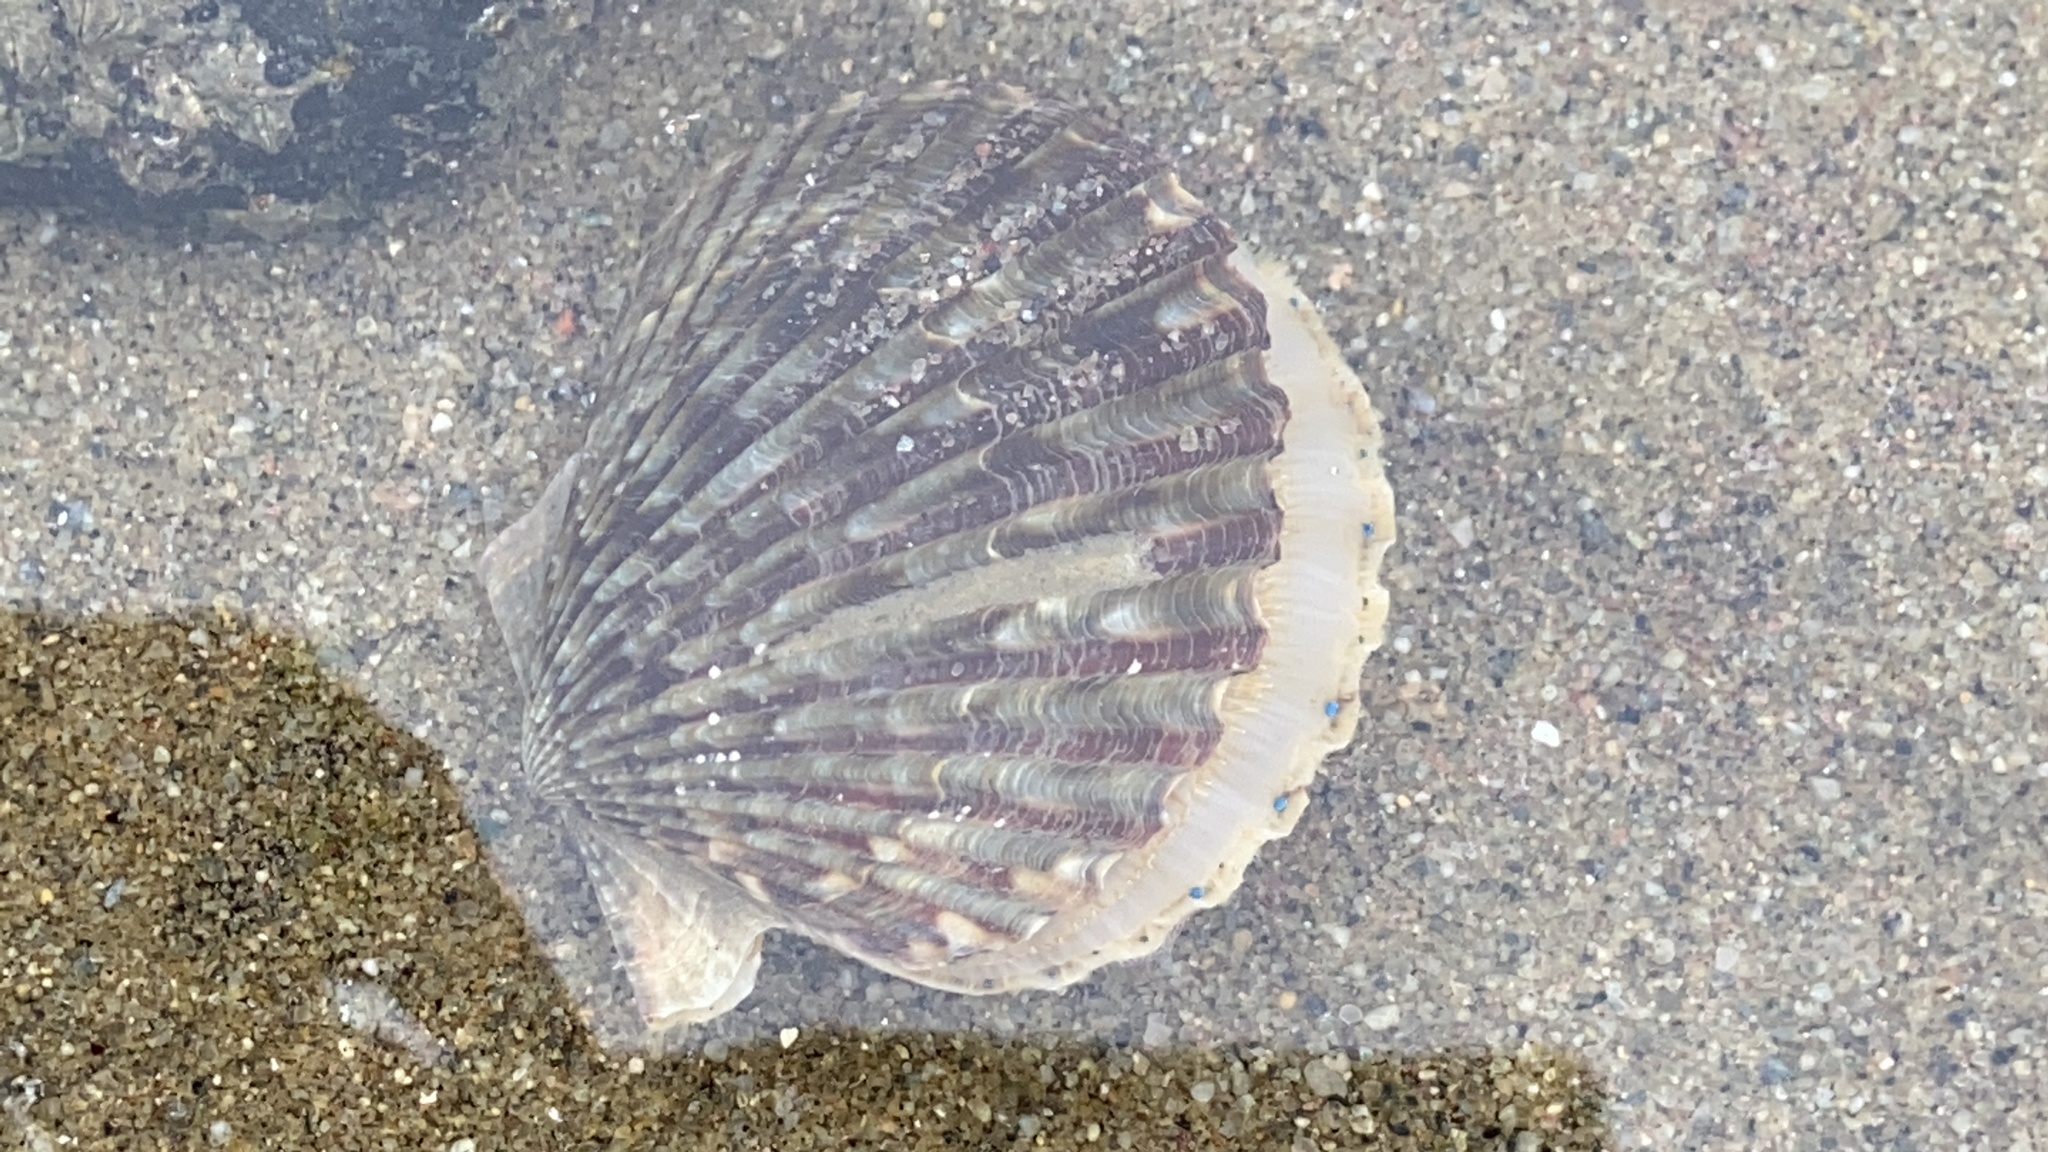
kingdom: Animalia
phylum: Mollusca
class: Bivalvia
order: Pectinida
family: Pectinidae
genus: Argopecten
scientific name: Argopecten irradians
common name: Atlantic bay scallop
